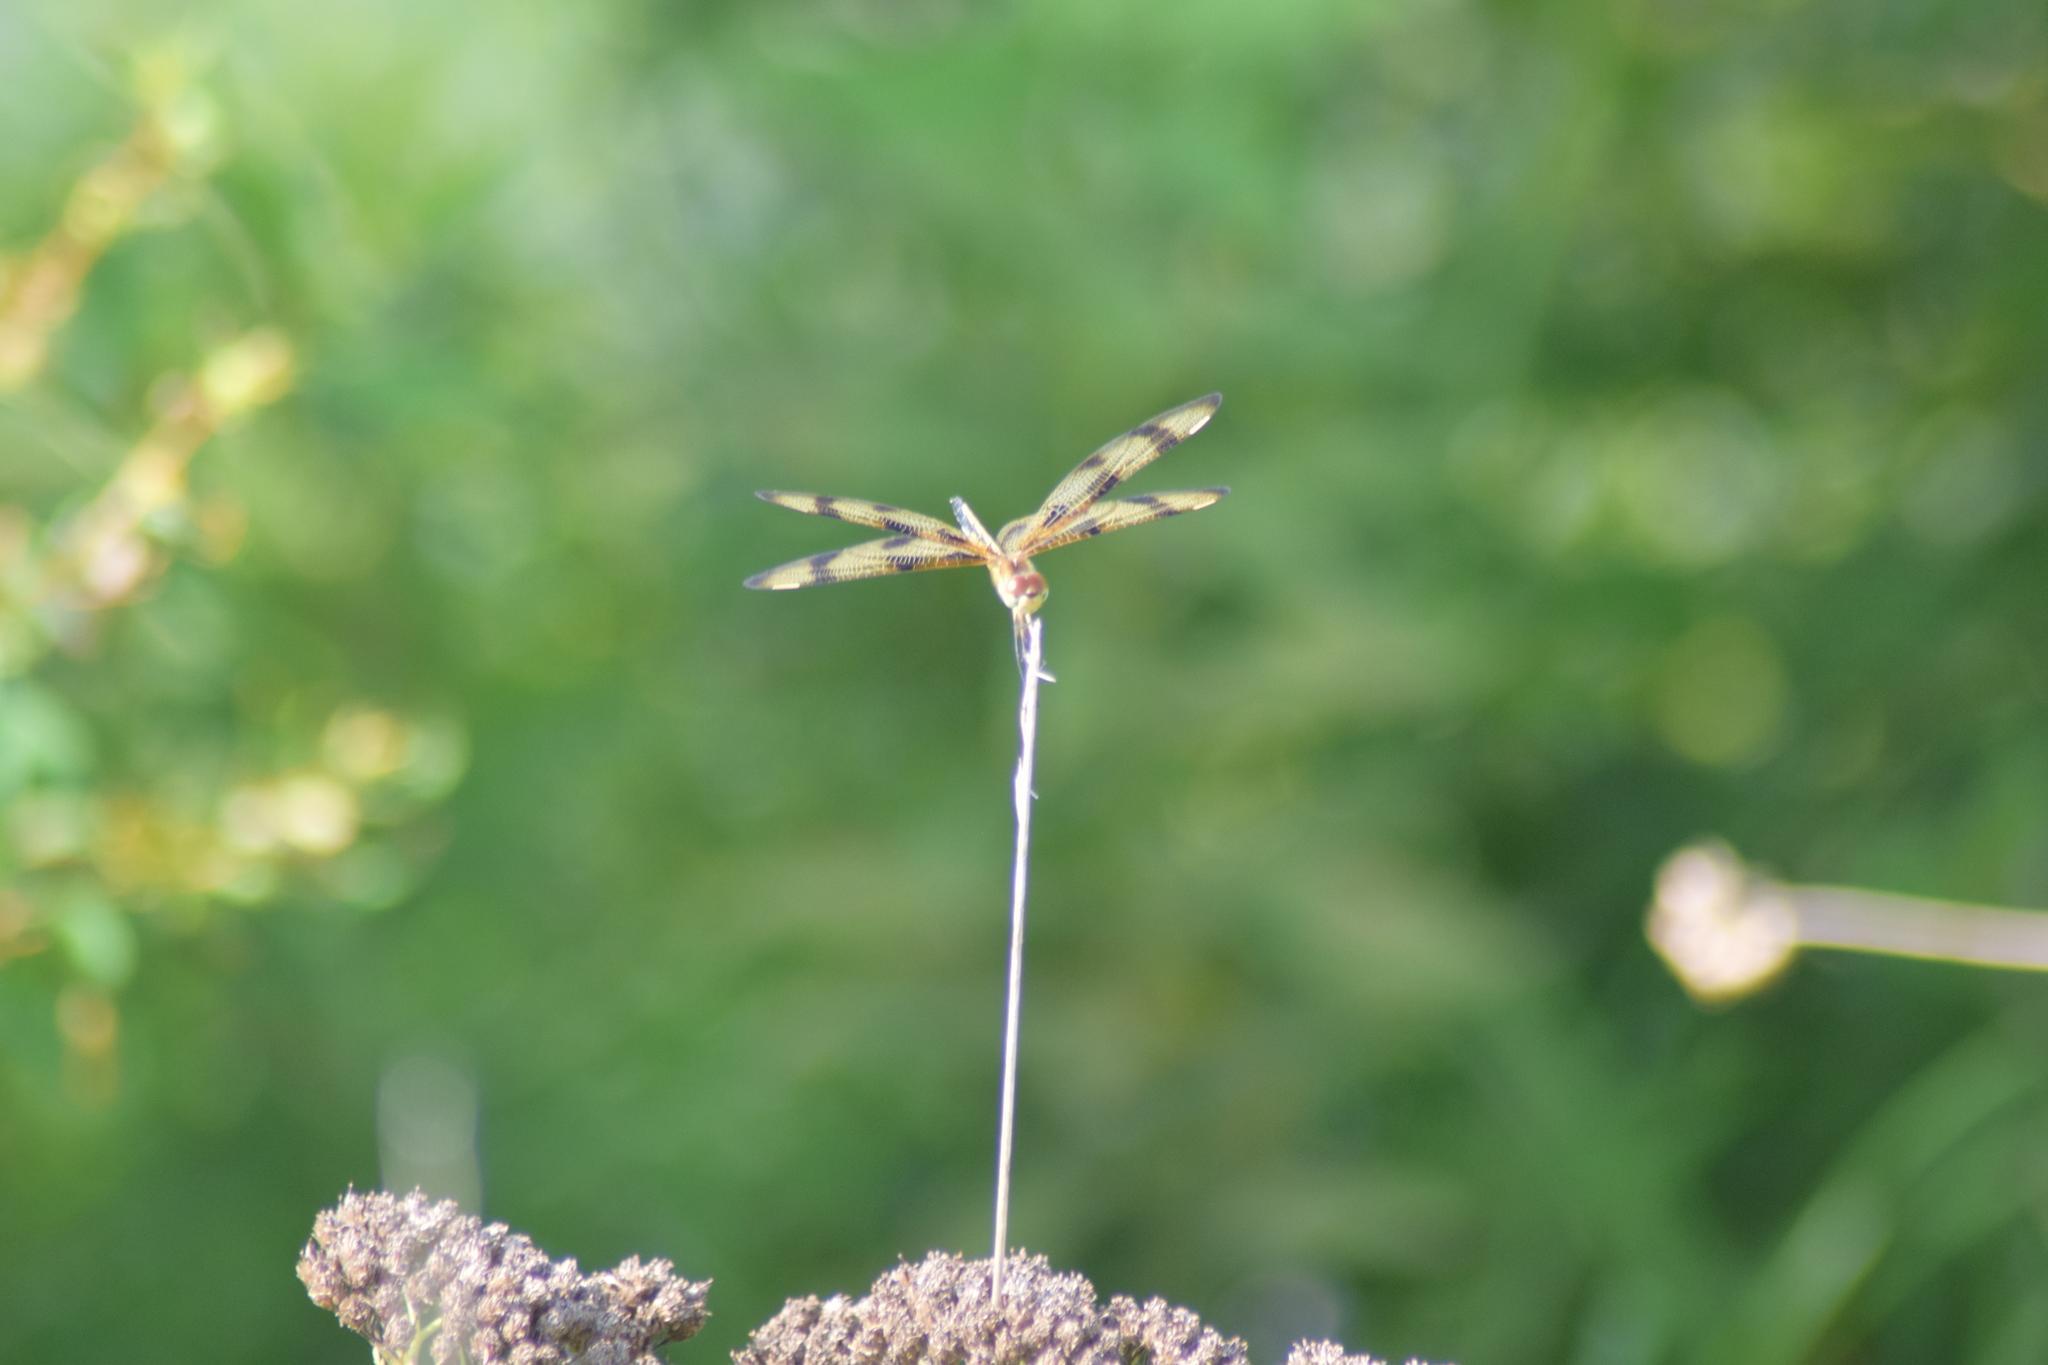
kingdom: Animalia
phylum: Arthropoda
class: Insecta
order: Odonata
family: Libellulidae
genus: Celithemis
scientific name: Celithemis eponina
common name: Halloween pennant
